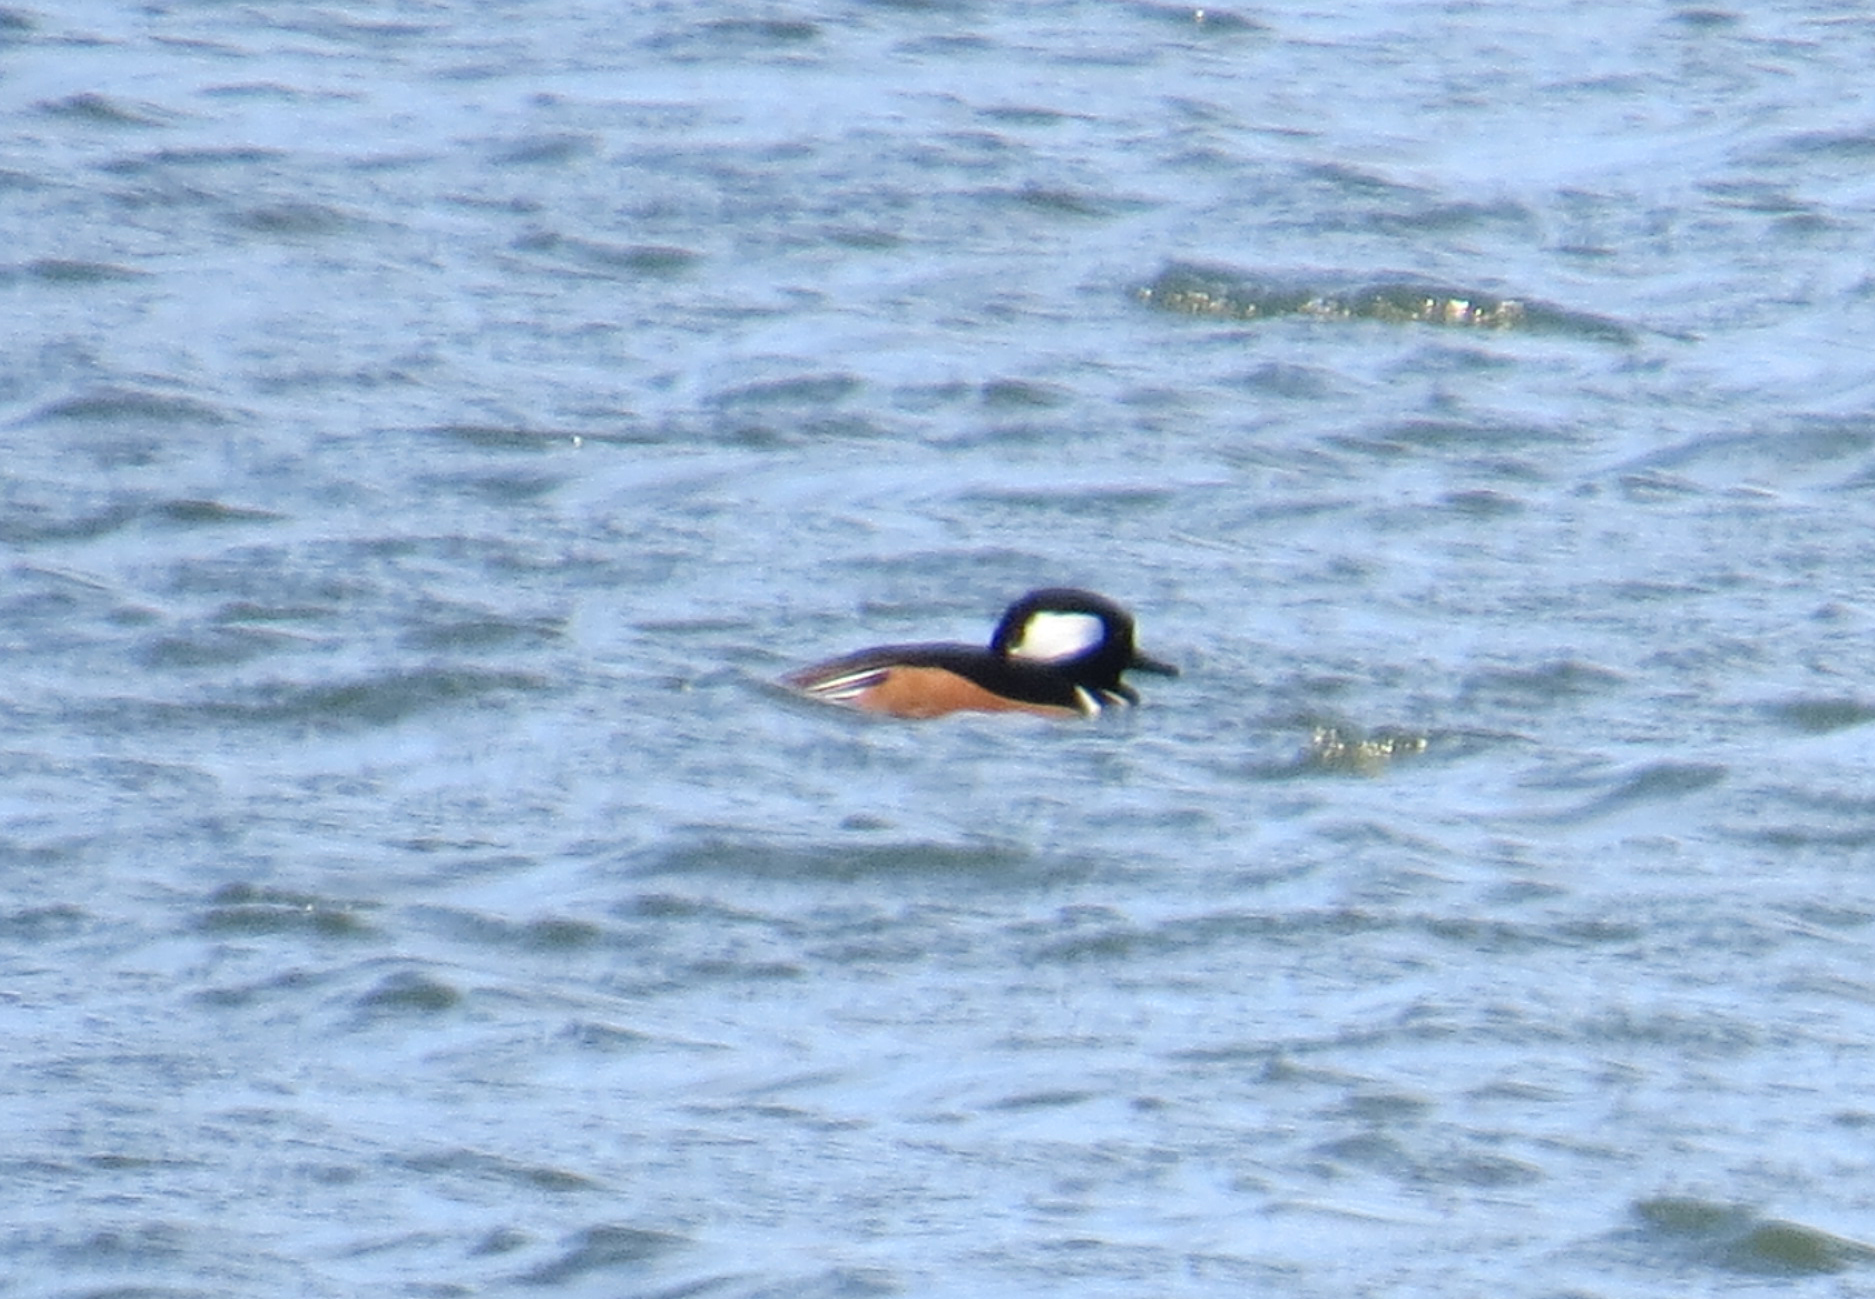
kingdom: Animalia
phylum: Chordata
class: Aves
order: Anseriformes
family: Anatidae
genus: Lophodytes
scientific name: Lophodytes cucullatus
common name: Hooded merganser
